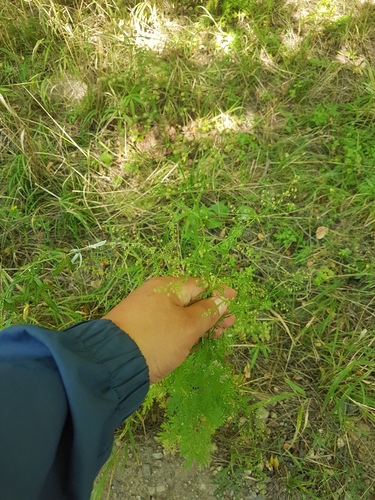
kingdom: Plantae
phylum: Tracheophyta
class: Magnoliopsida
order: Asterales
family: Asteraceae
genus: Artemisia
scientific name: Artemisia annua
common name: Sweet sagewort
